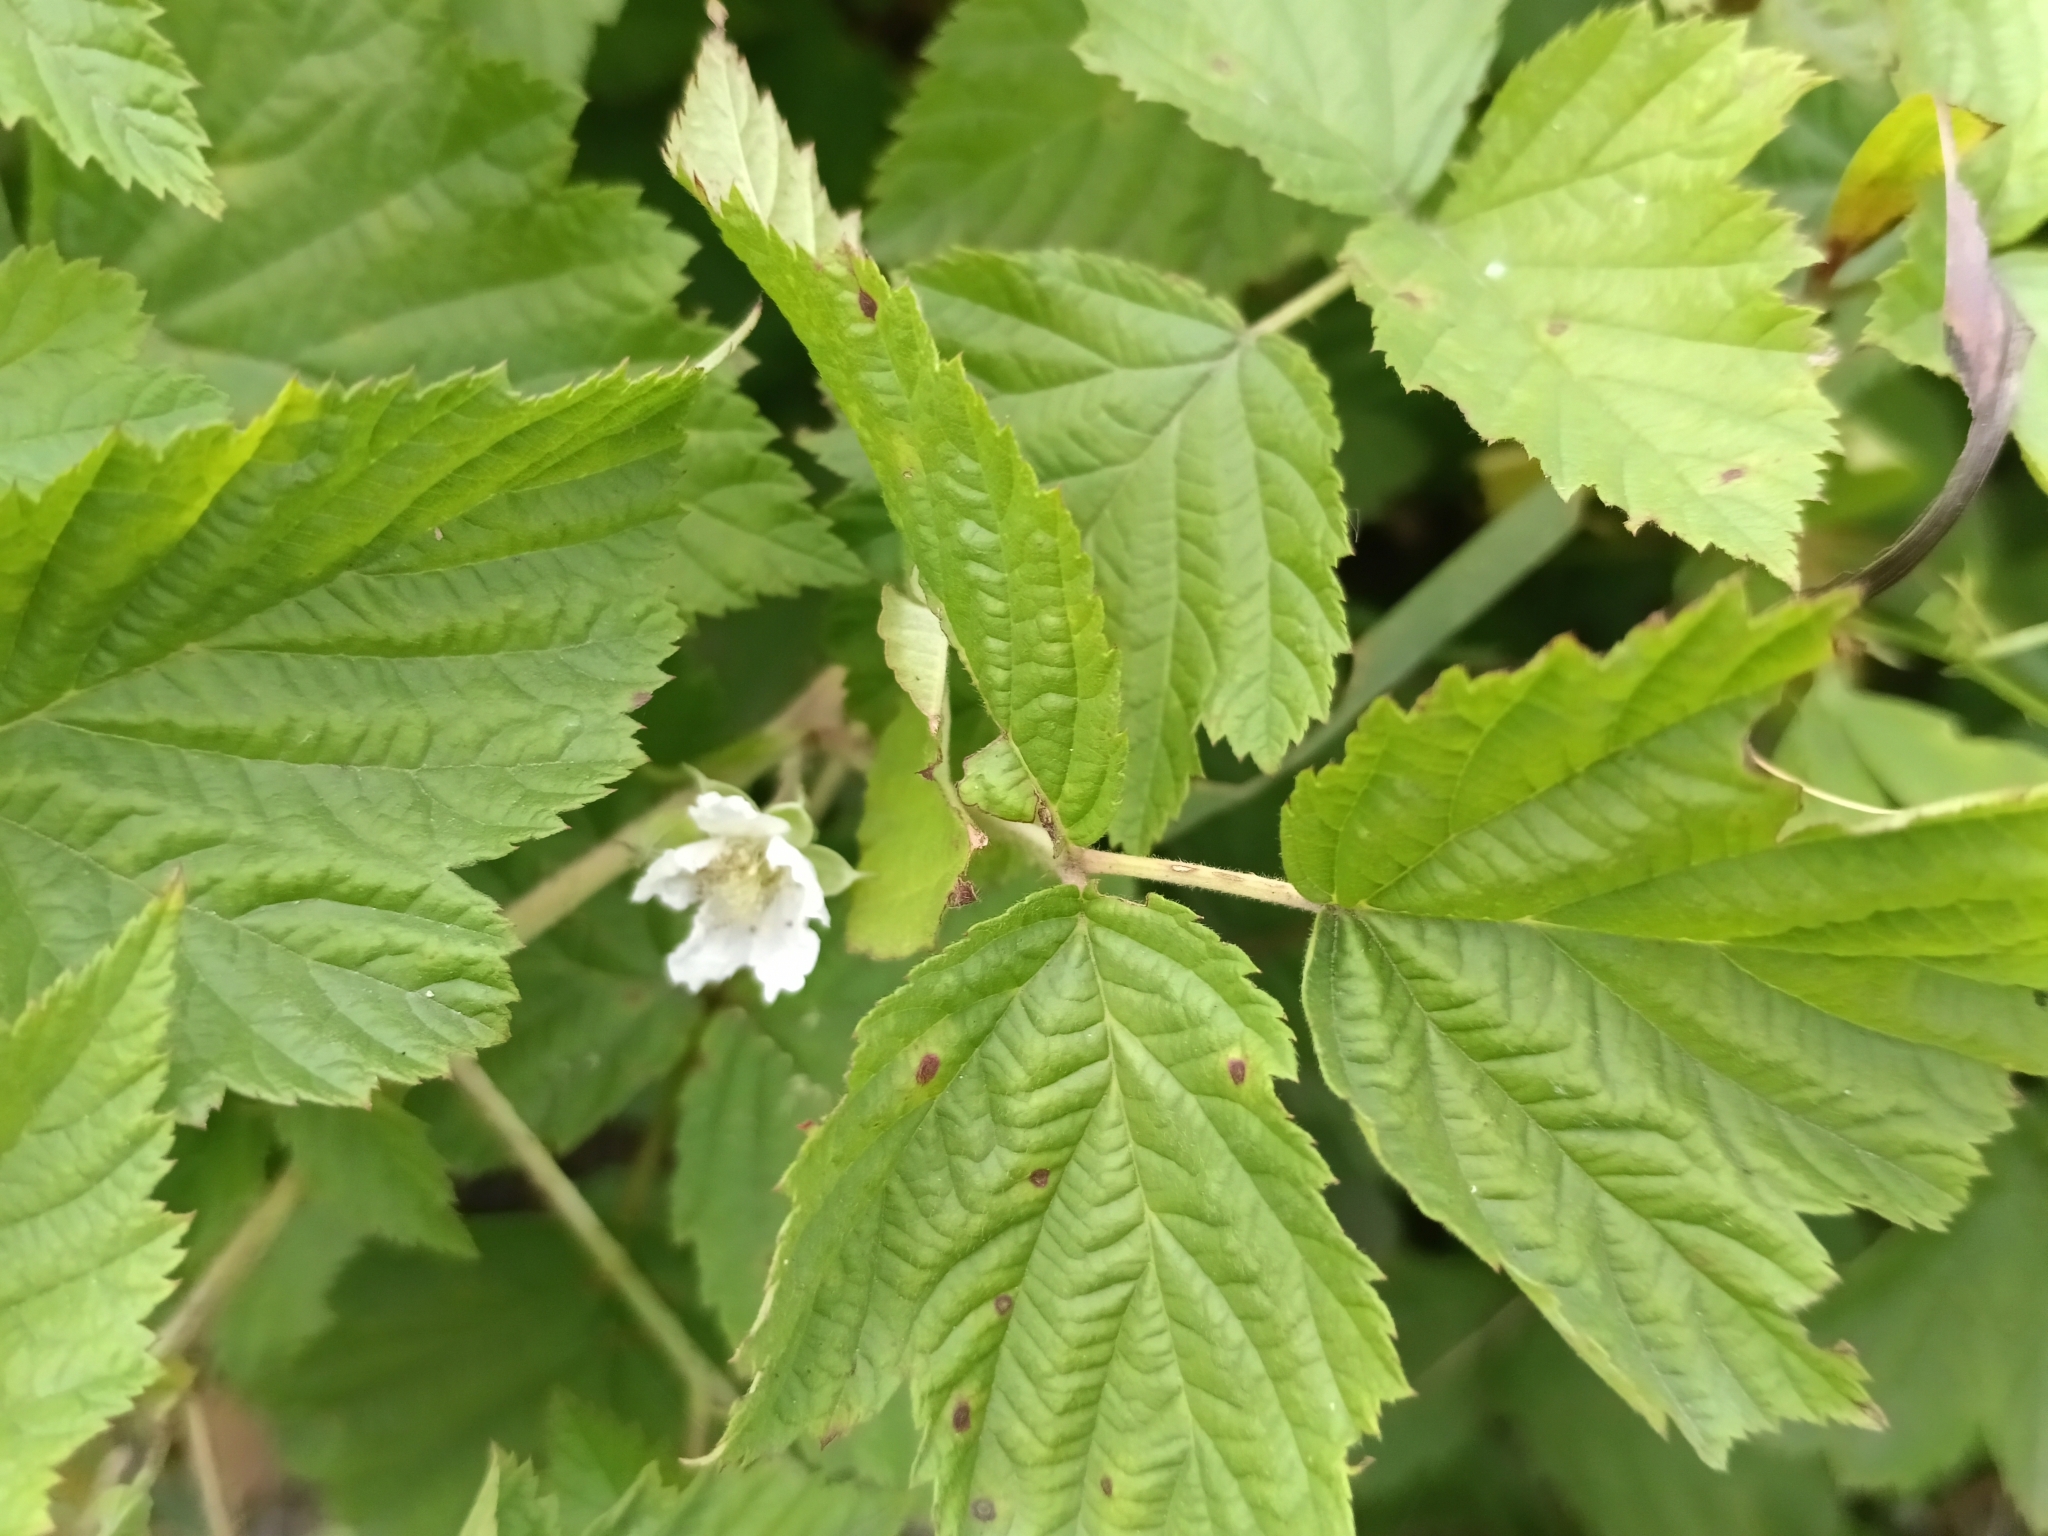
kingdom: Plantae
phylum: Tracheophyta
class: Magnoliopsida
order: Rosales
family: Rosaceae
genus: Rubus
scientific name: Rubus caesius
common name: Dewberry
